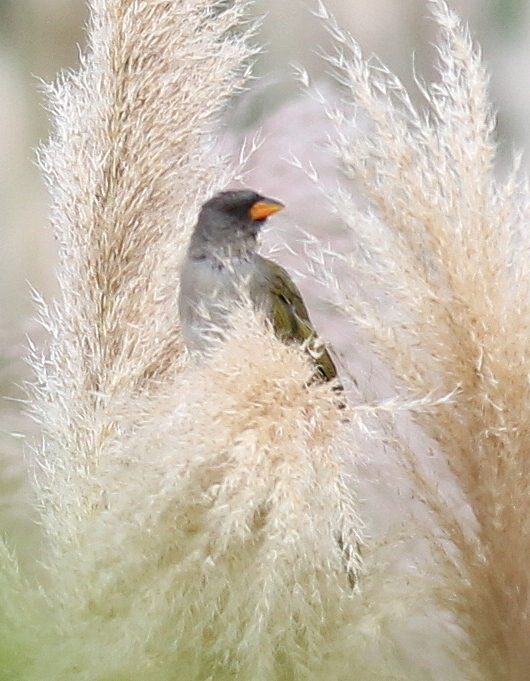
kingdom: Animalia
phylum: Chordata
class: Aves
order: Passeriformes
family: Thraupidae
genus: Embernagra
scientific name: Embernagra platensis
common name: Pampa finch
